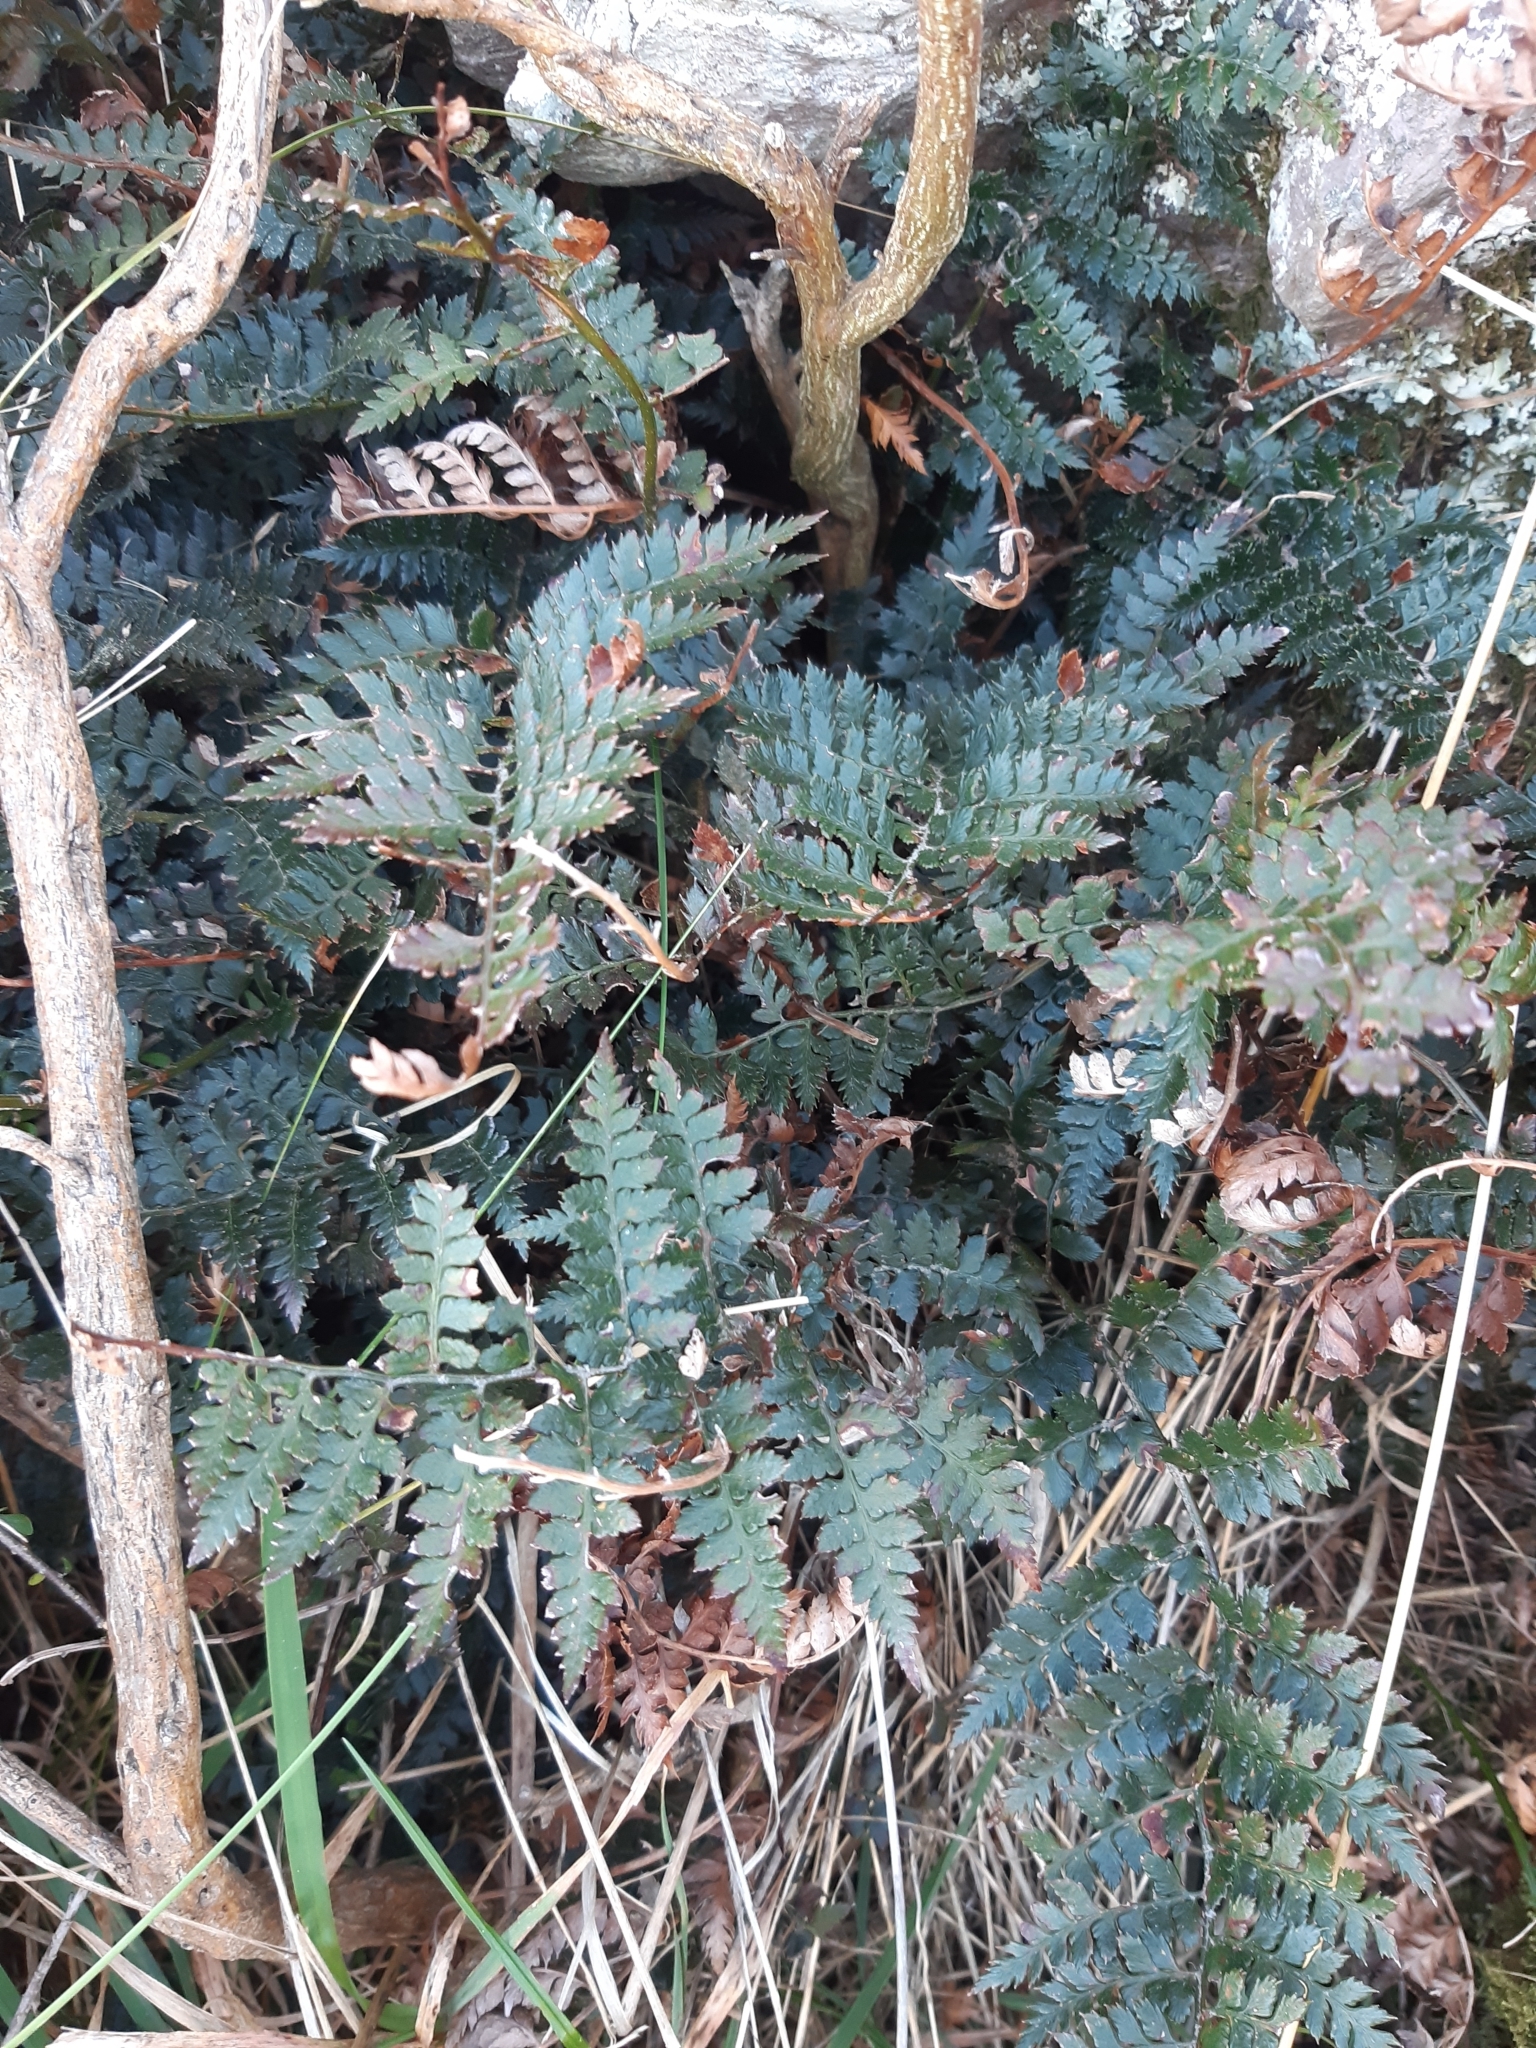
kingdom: Plantae
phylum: Tracheophyta
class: Polypodiopsida
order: Polypodiales
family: Dryopteridaceae
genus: Polystichum
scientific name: Polystichum oculatum
